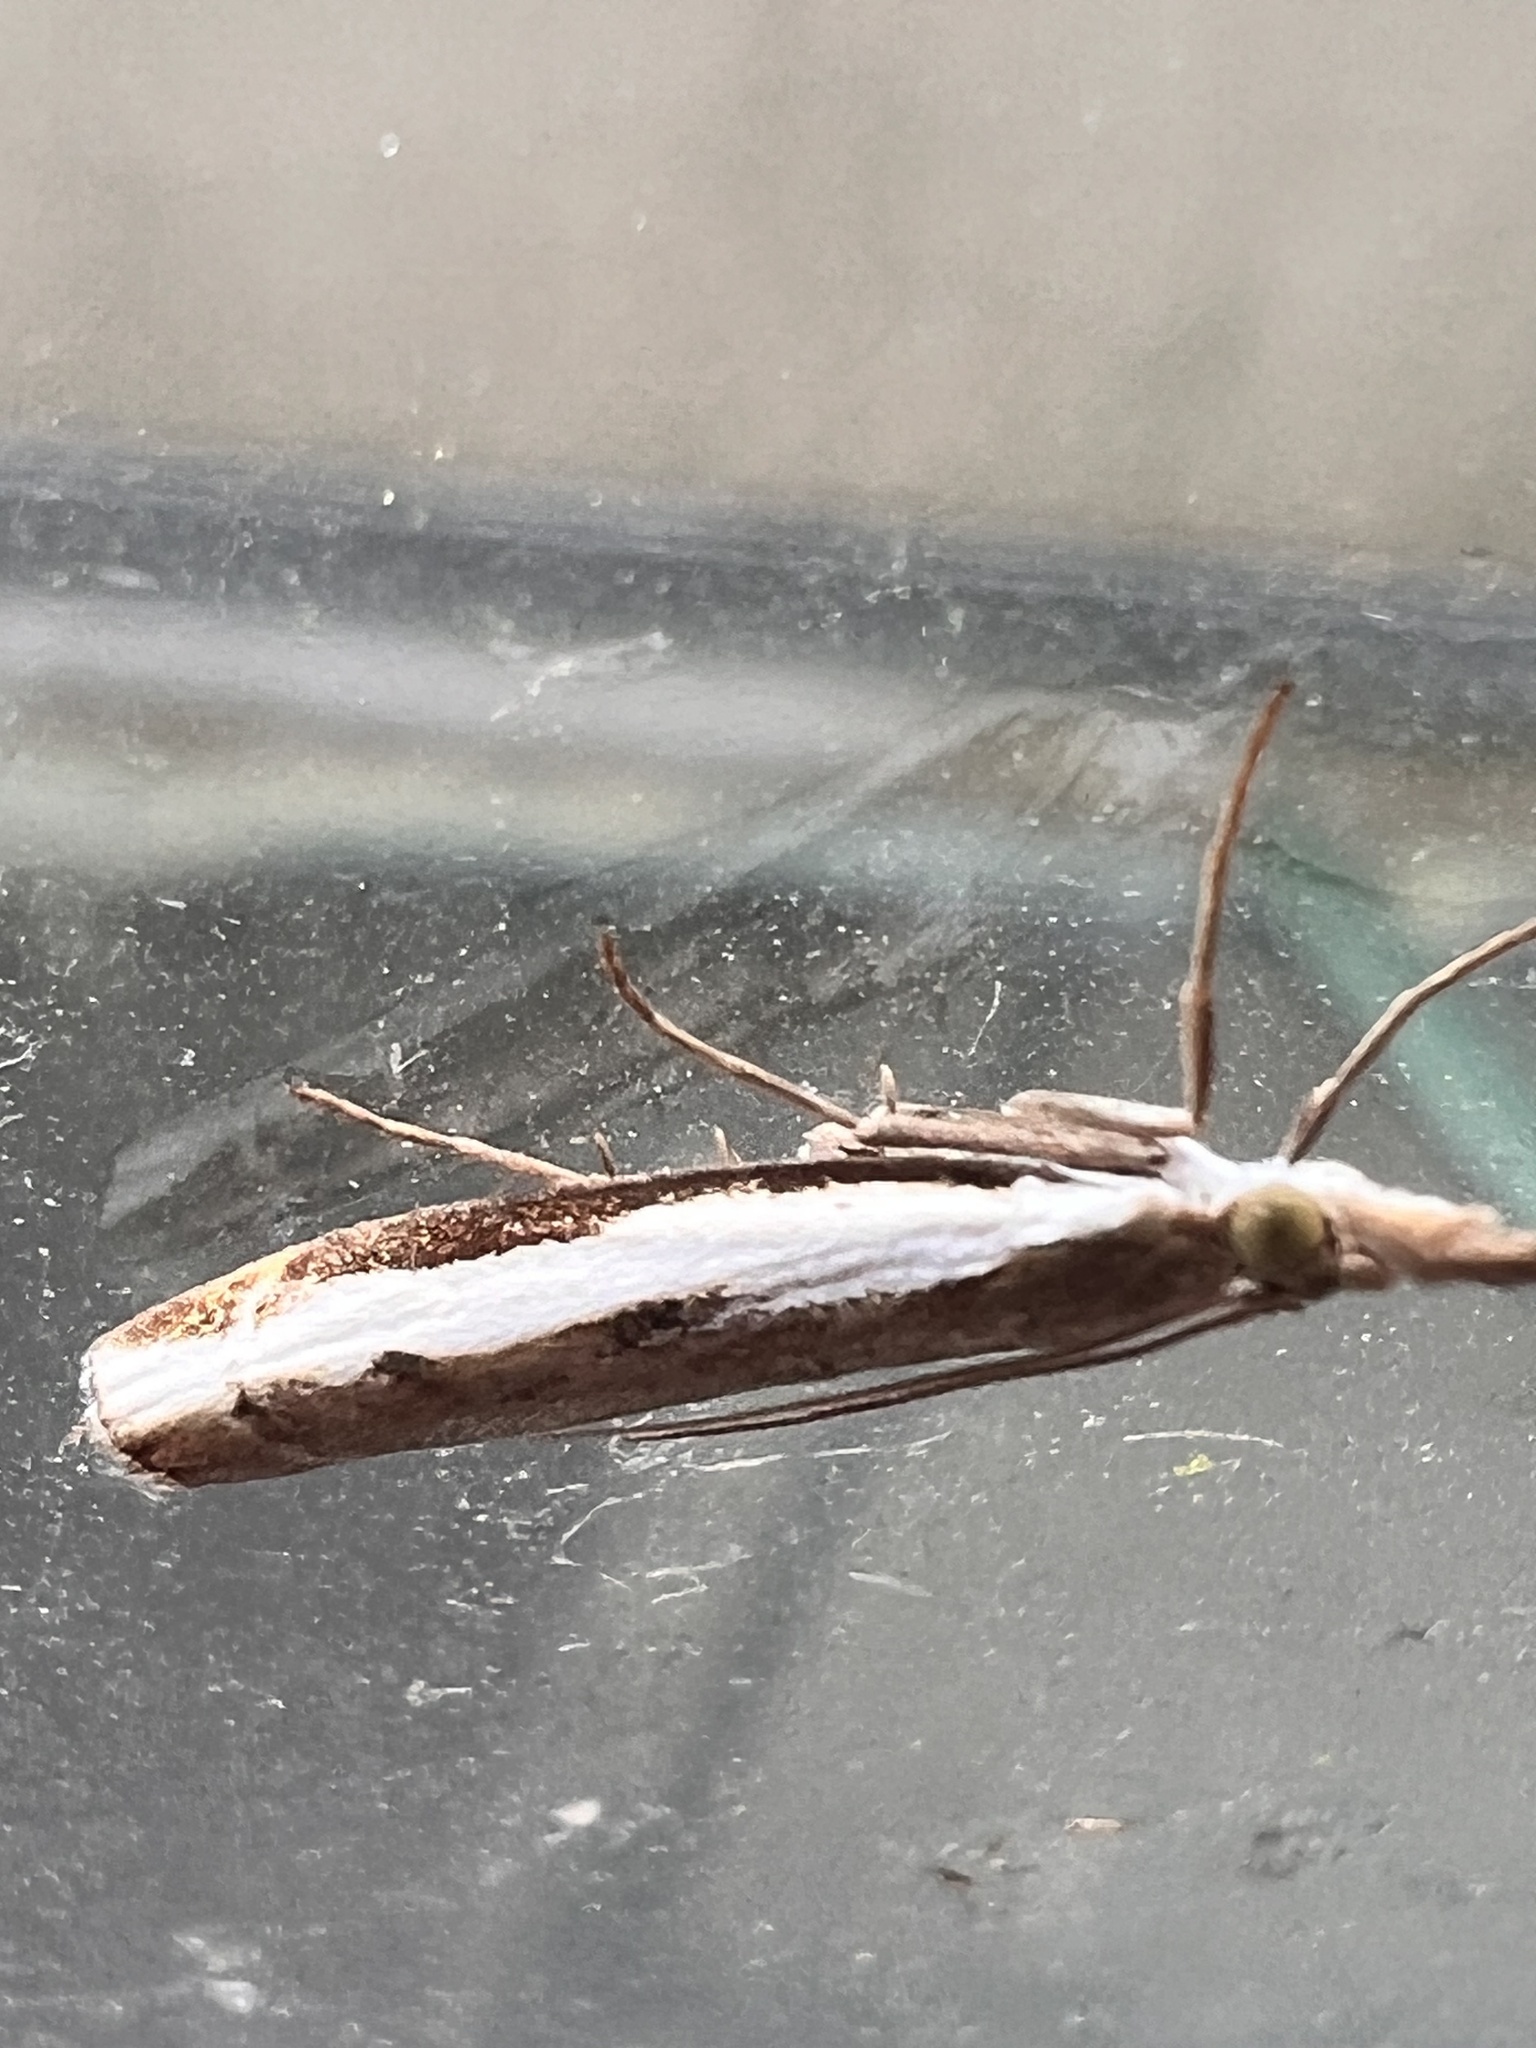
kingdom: Animalia
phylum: Arthropoda
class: Insecta
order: Lepidoptera
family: Crambidae
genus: Orocrambus
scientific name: Orocrambus flexuosellus
